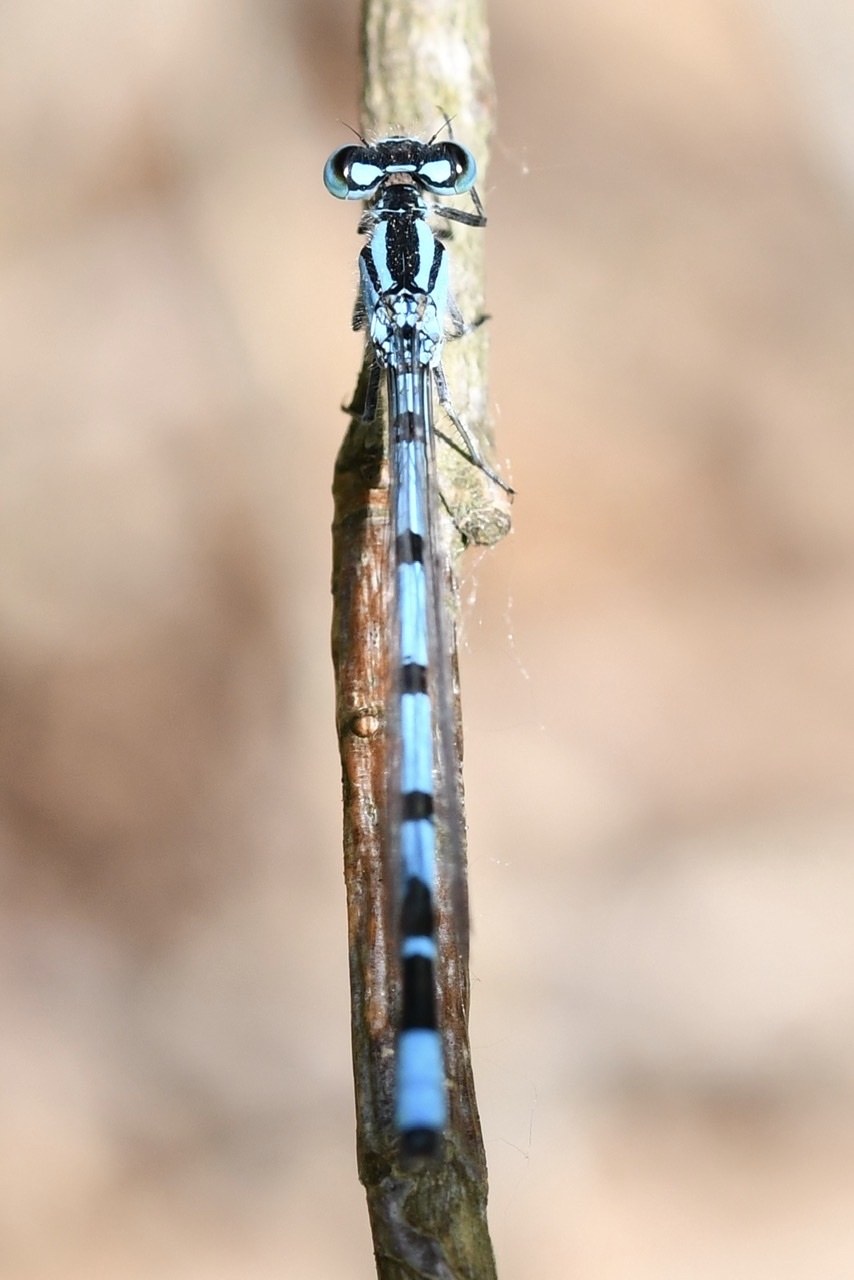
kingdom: Animalia
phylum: Arthropoda
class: Insecta
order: Odonata
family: Coenagrionidae
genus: Enallagma
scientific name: Enallagma cyathigerum
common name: Common blue damselfly
